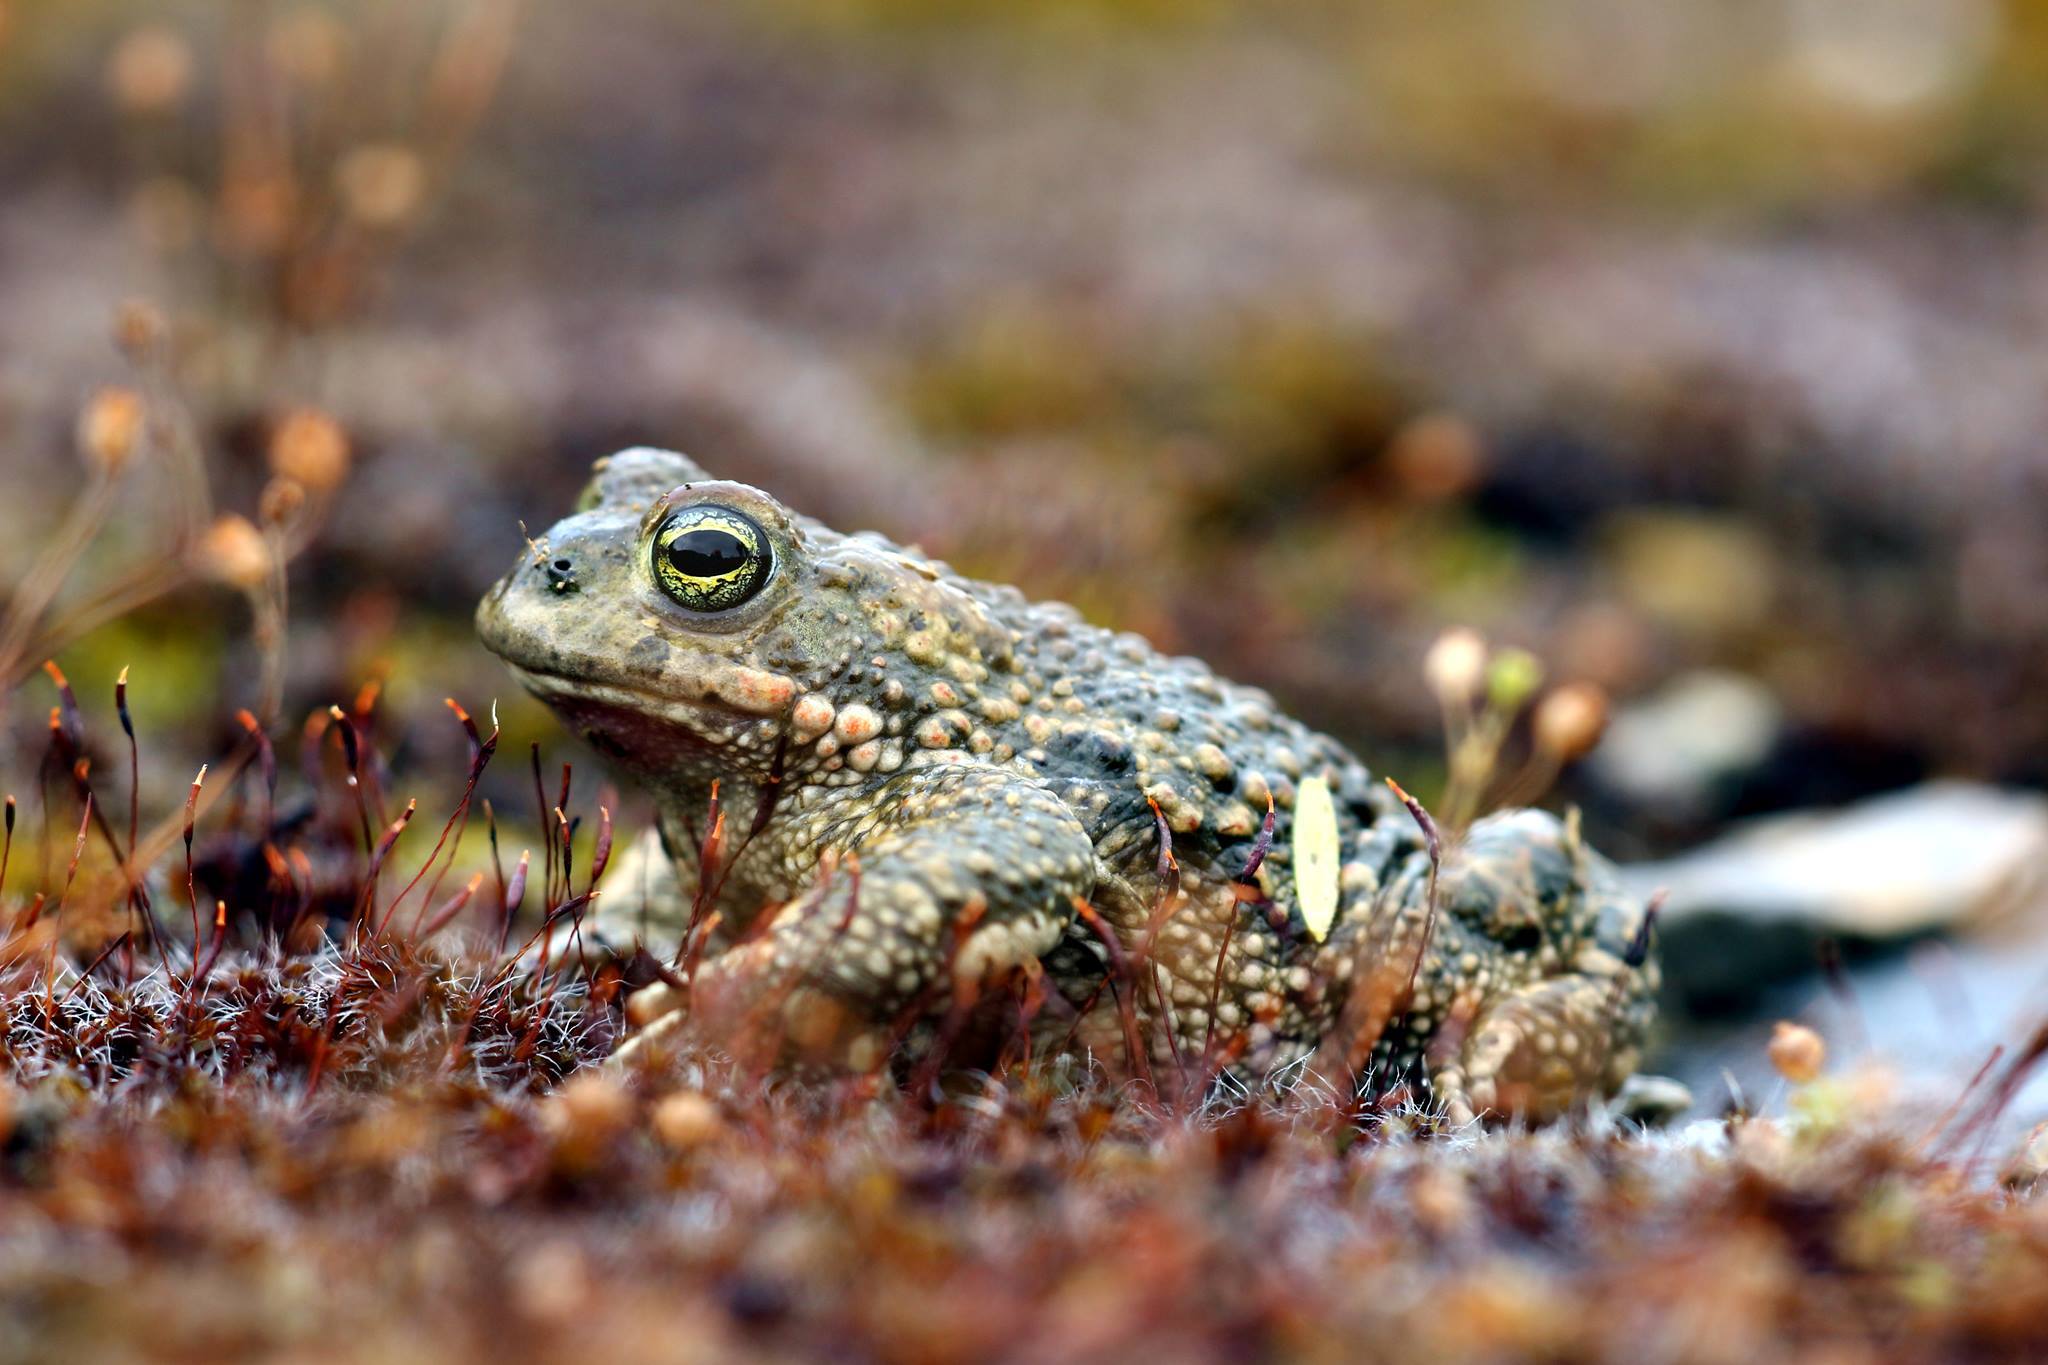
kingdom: Animalia
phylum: Chordata
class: Amphibia
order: Anura
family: Bufonidae
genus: Epidalea
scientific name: Epidalea calamita
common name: Natterjack toad
